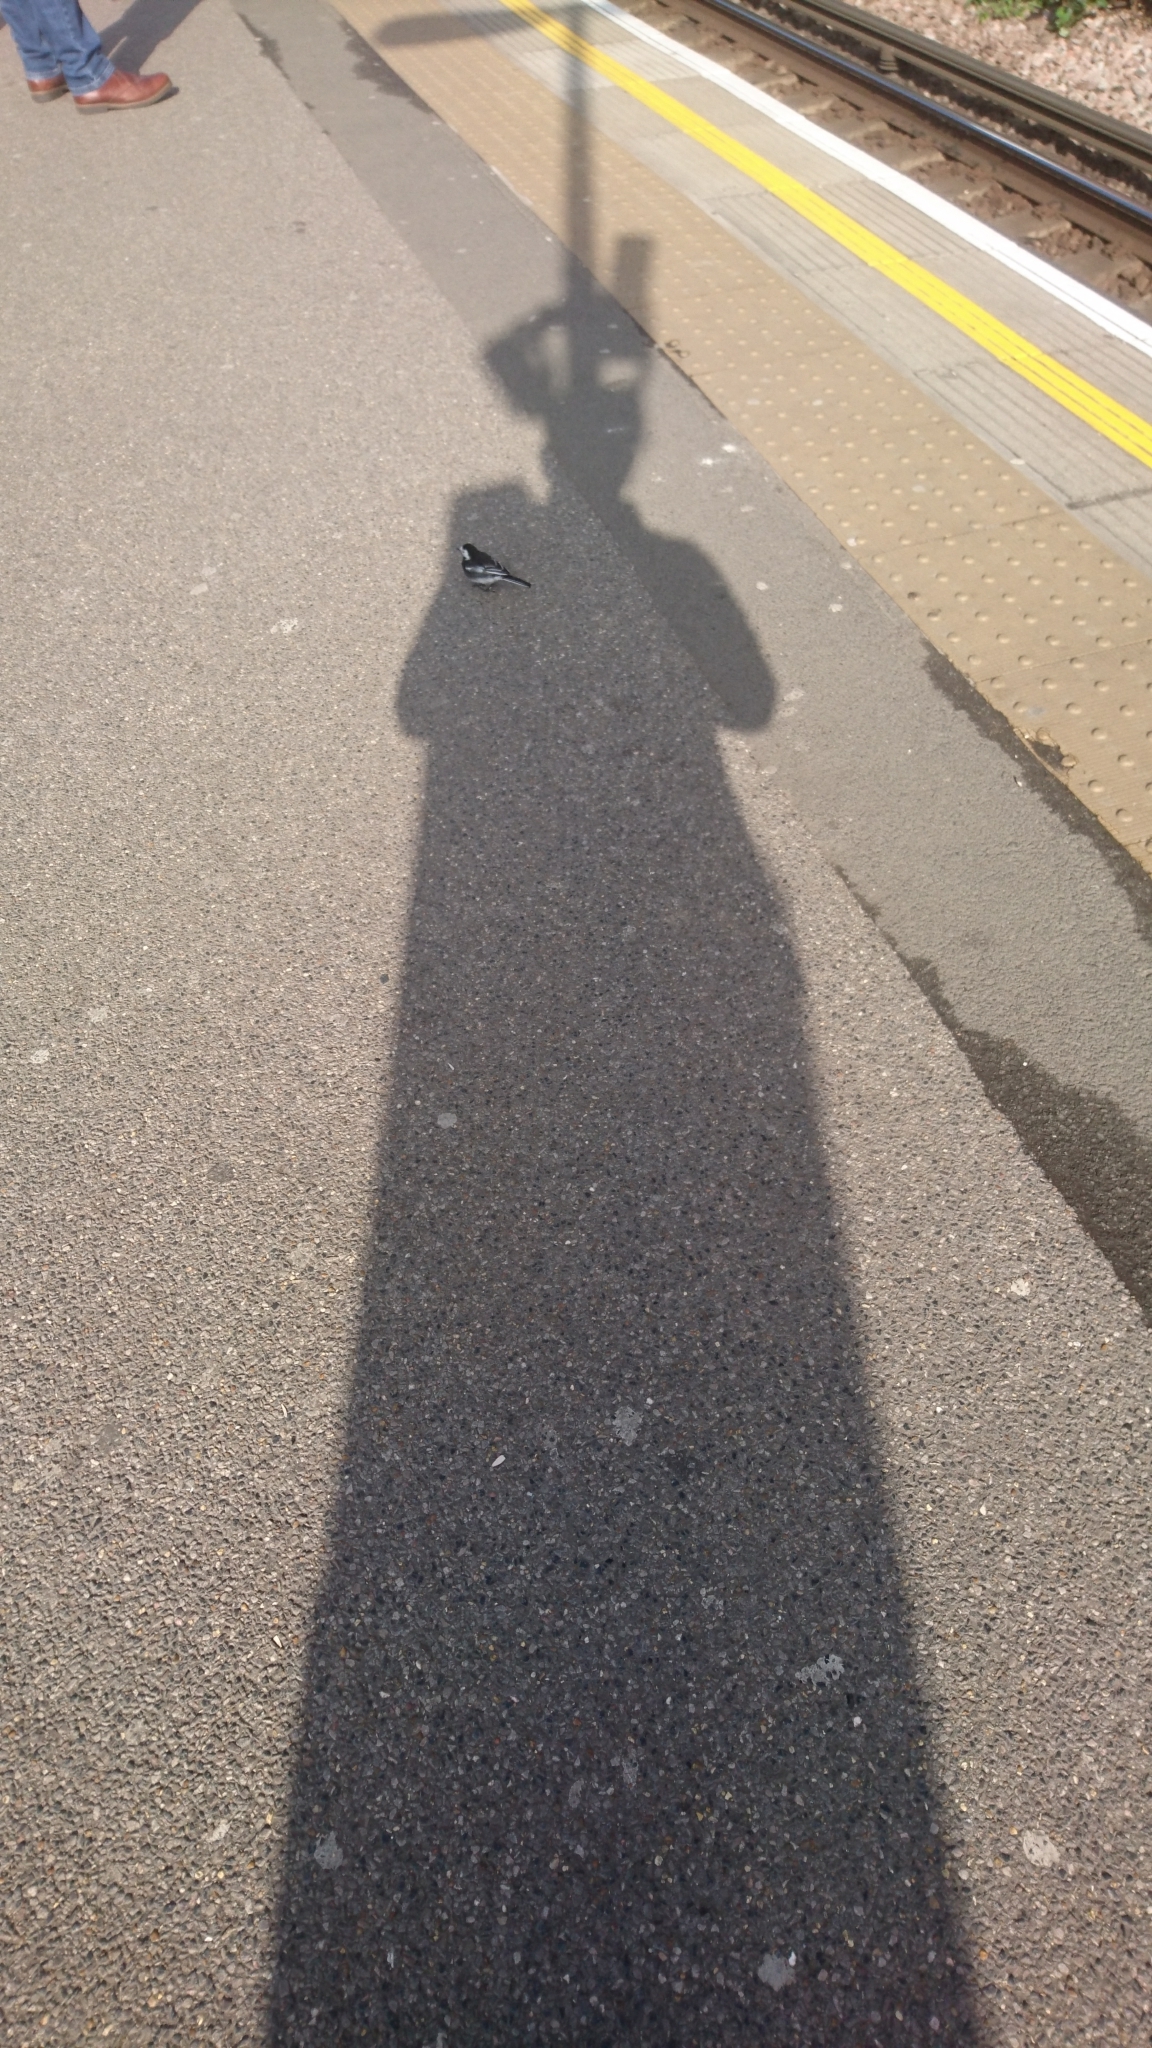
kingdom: Animalia
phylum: Chordata
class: Aves
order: Passeriformes
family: Motacillidae
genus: Motacilla
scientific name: Motacilla alba
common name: White wagtail
